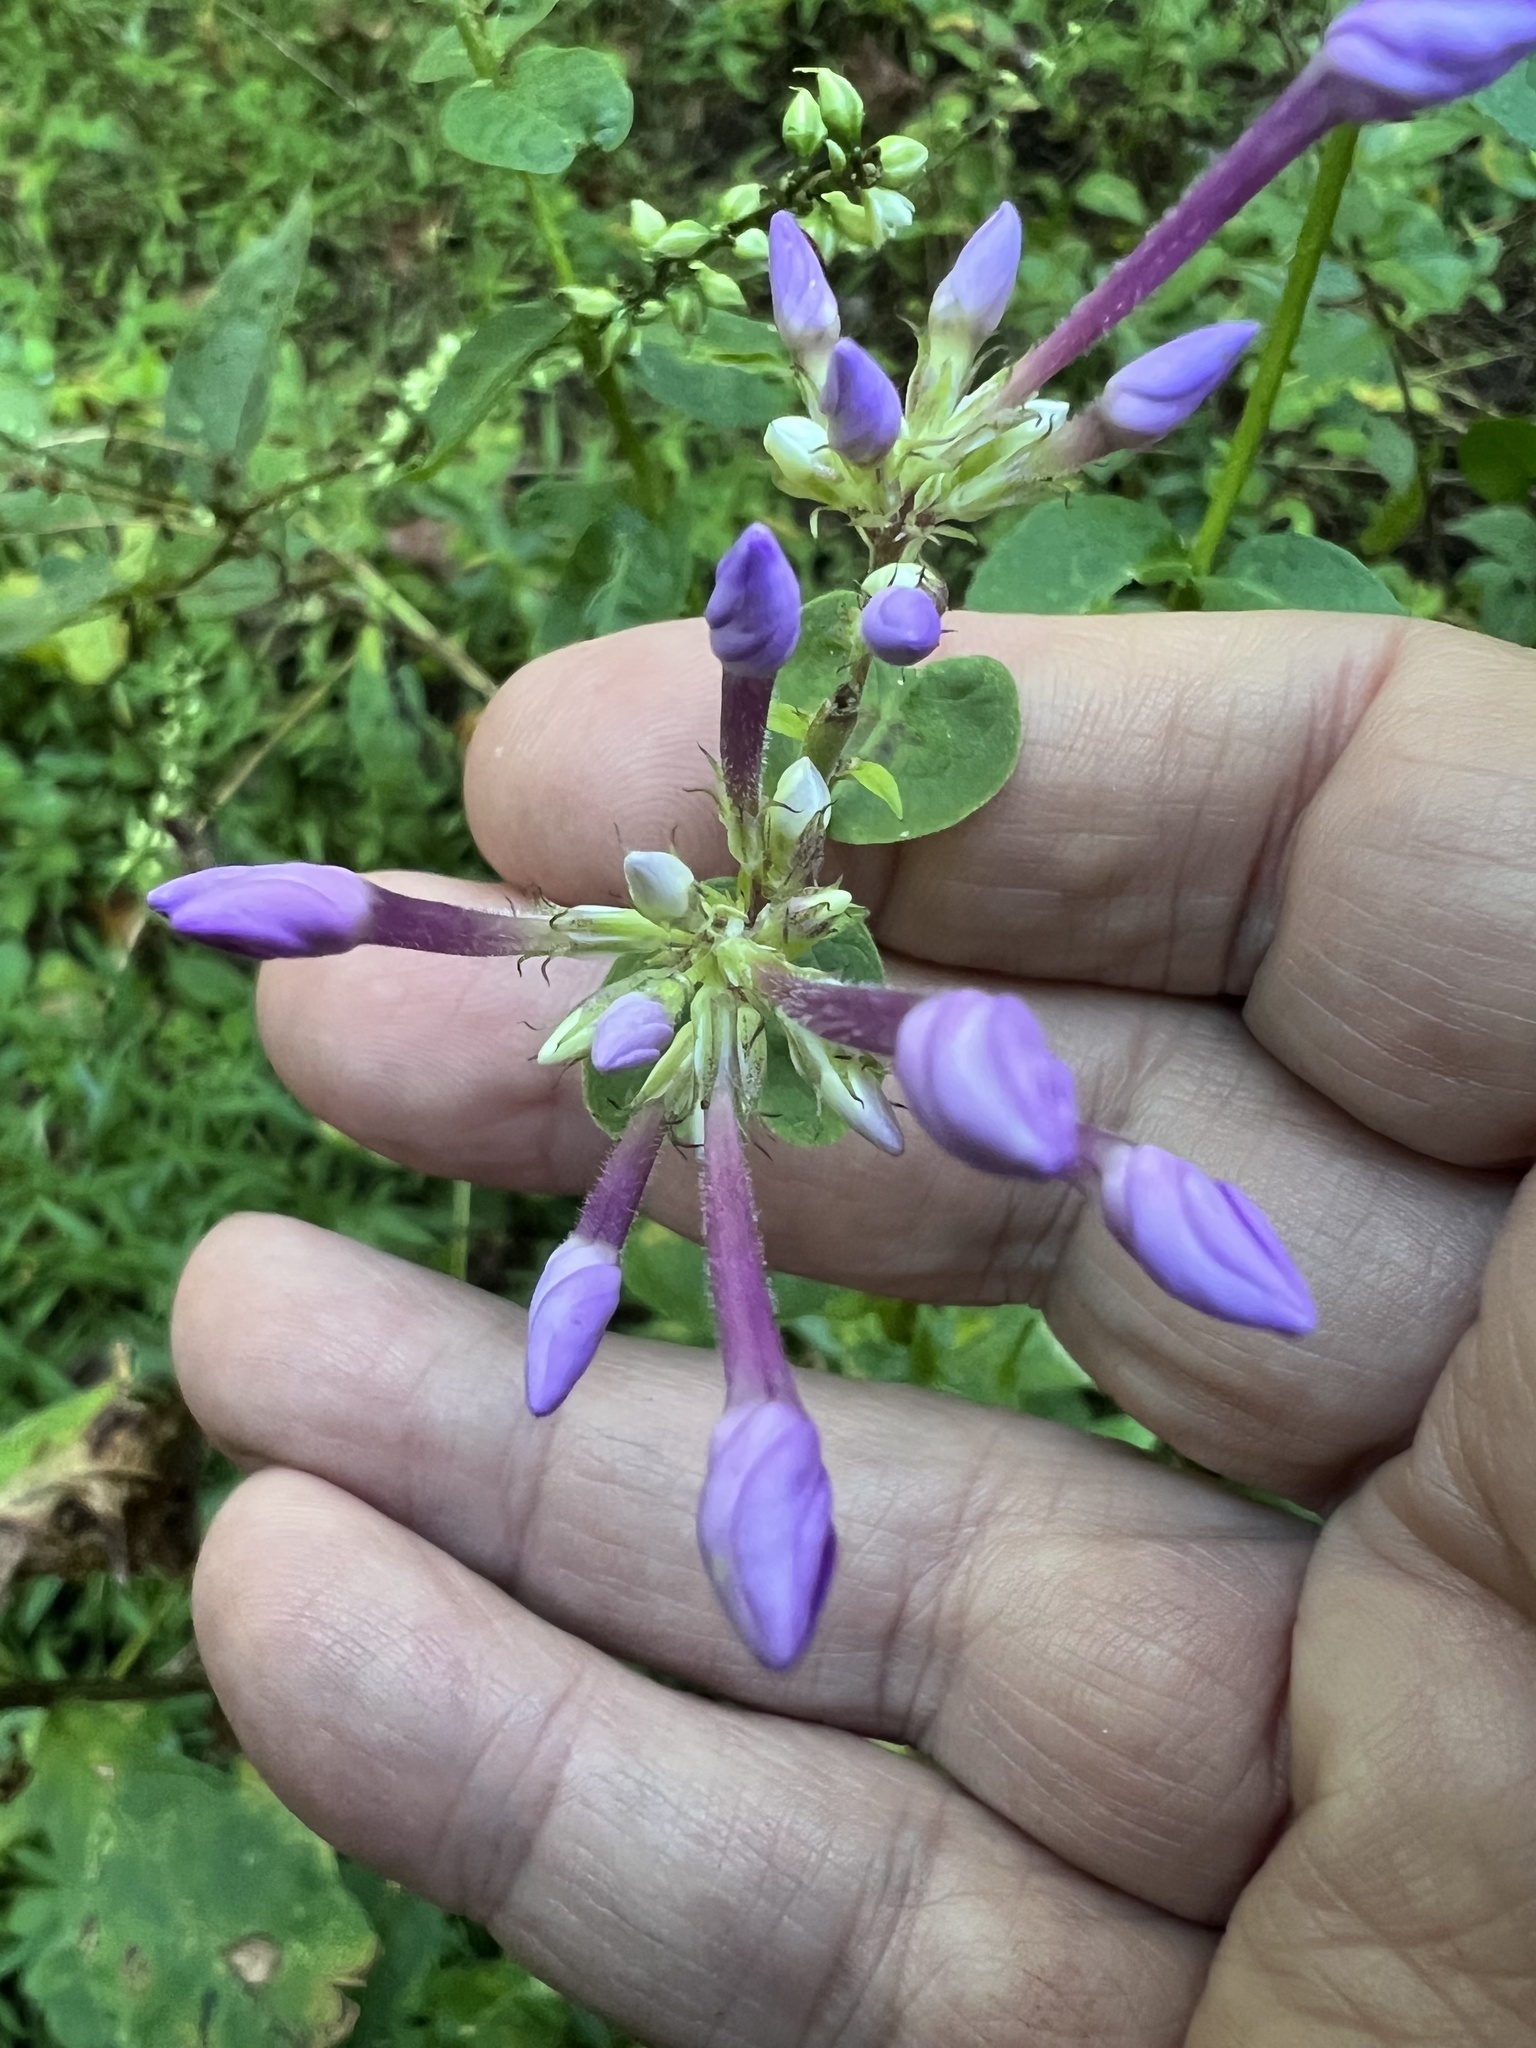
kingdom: Plantae
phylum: Tracheophyta
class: Magnoliopsida
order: Ericales
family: Polemoniaceae
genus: Phlox
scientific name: Phlox paniculata
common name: Fall phlox
